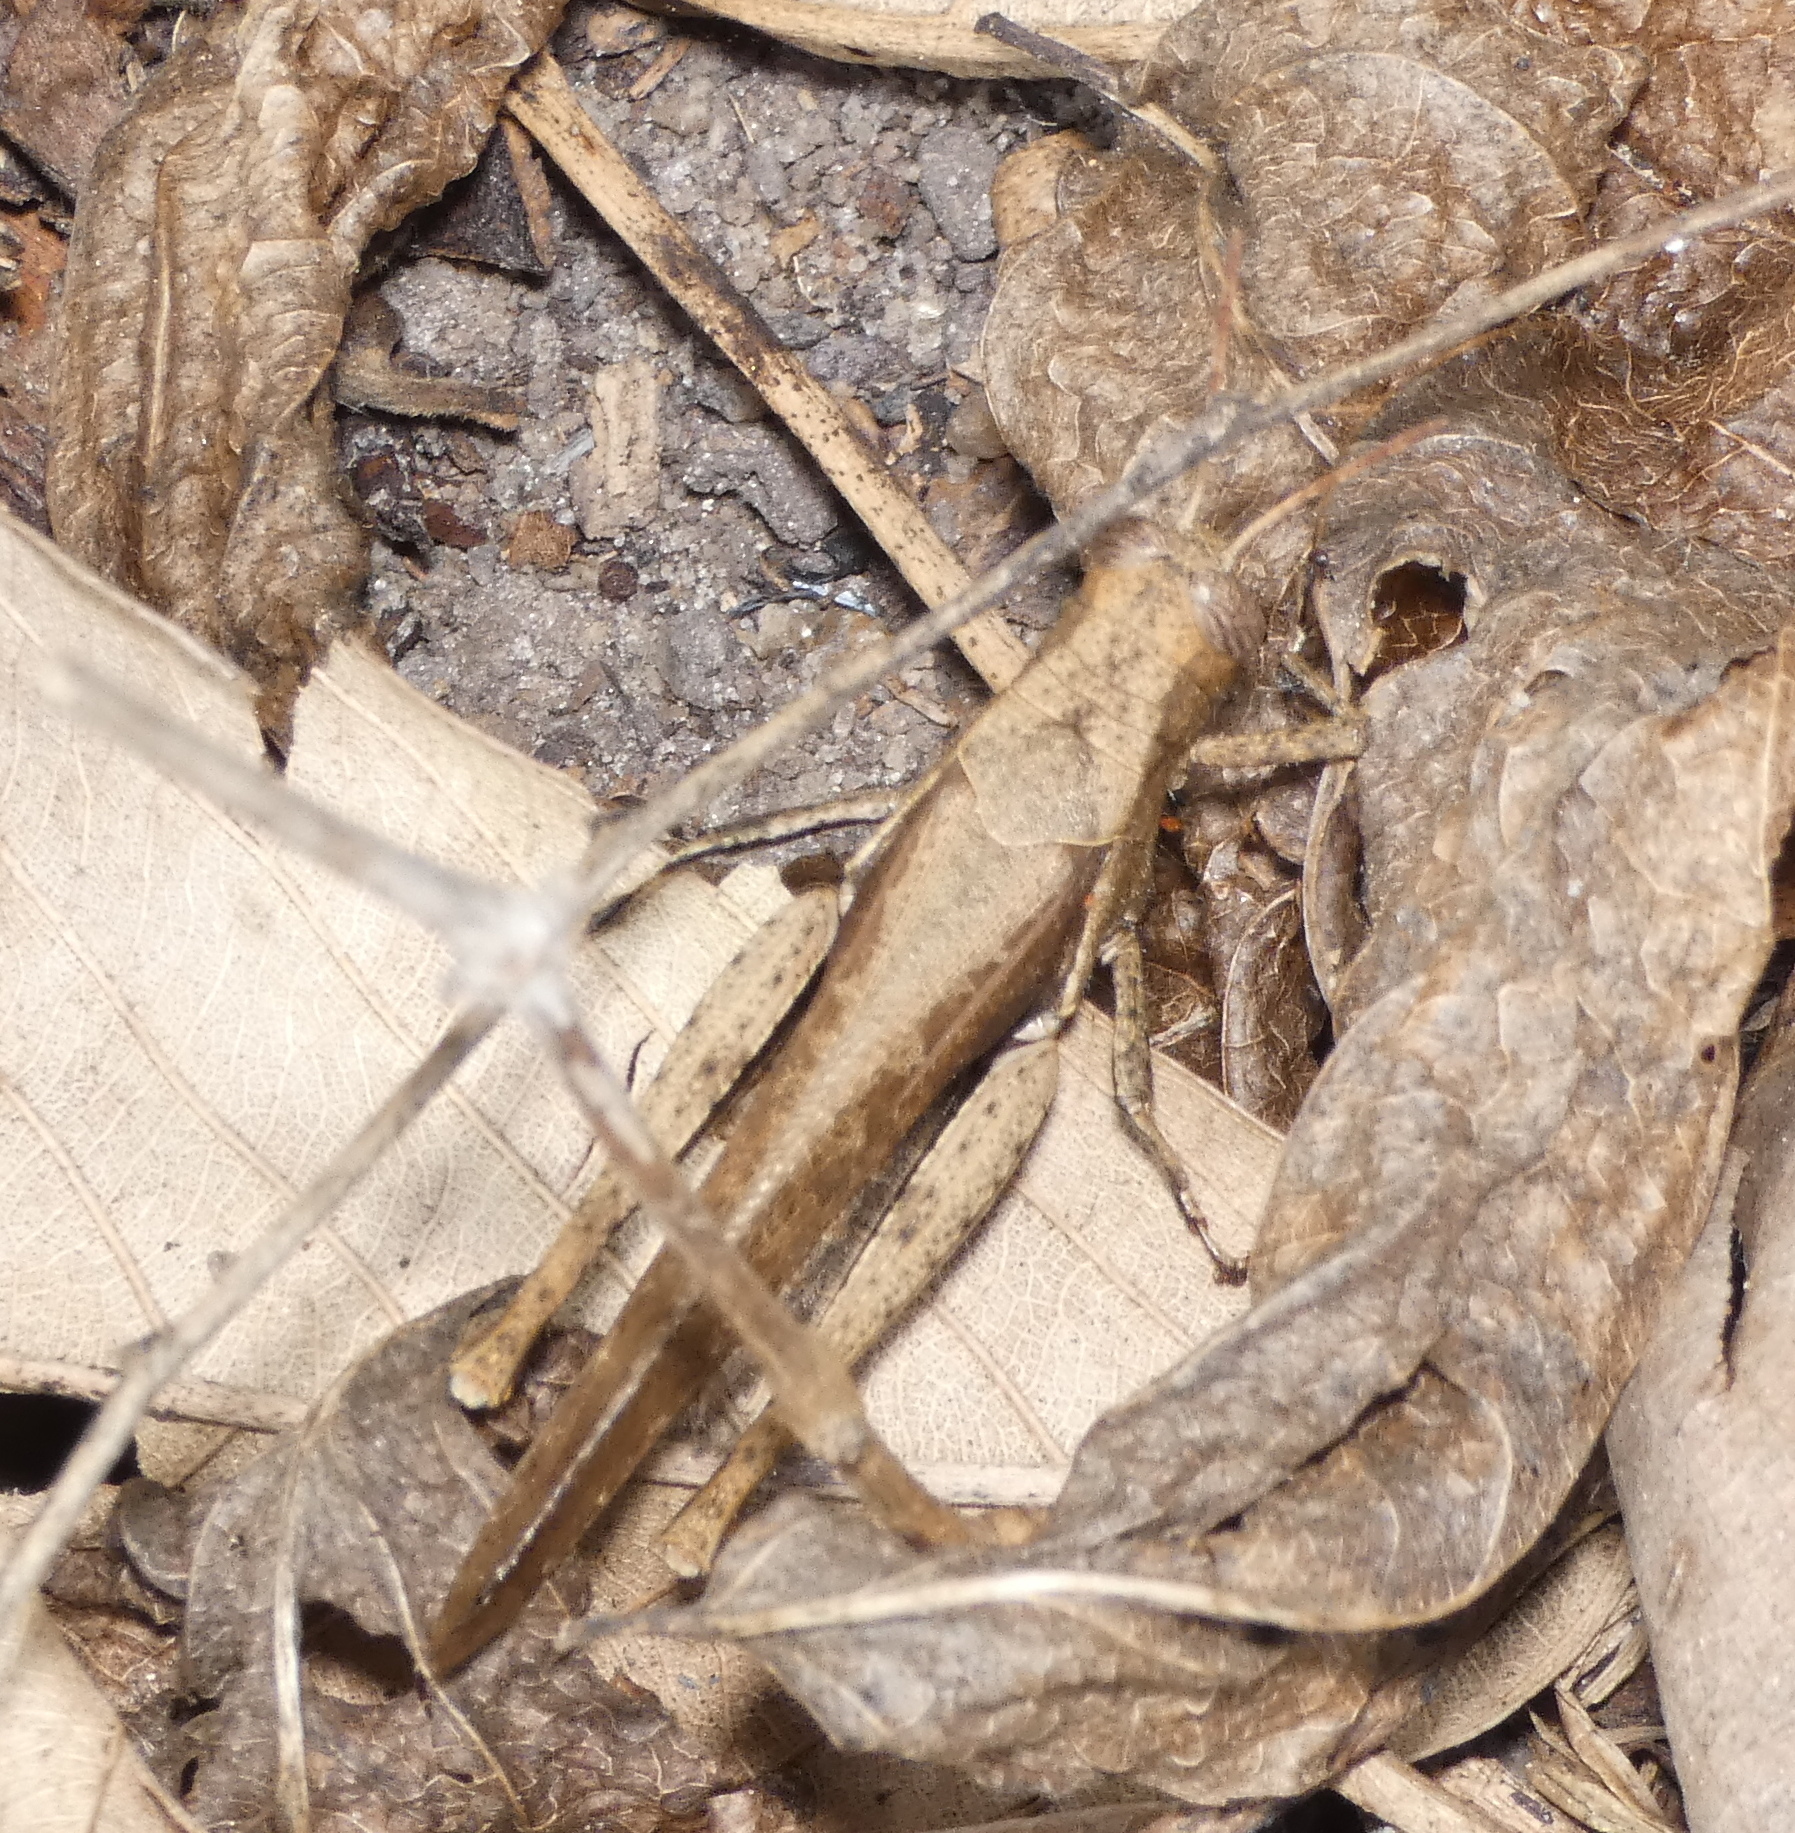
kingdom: Animalia
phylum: Arthropoda
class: Insecta
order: Orthoptera
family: Acrididae
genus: Abracris
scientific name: Abracris flavolineata
